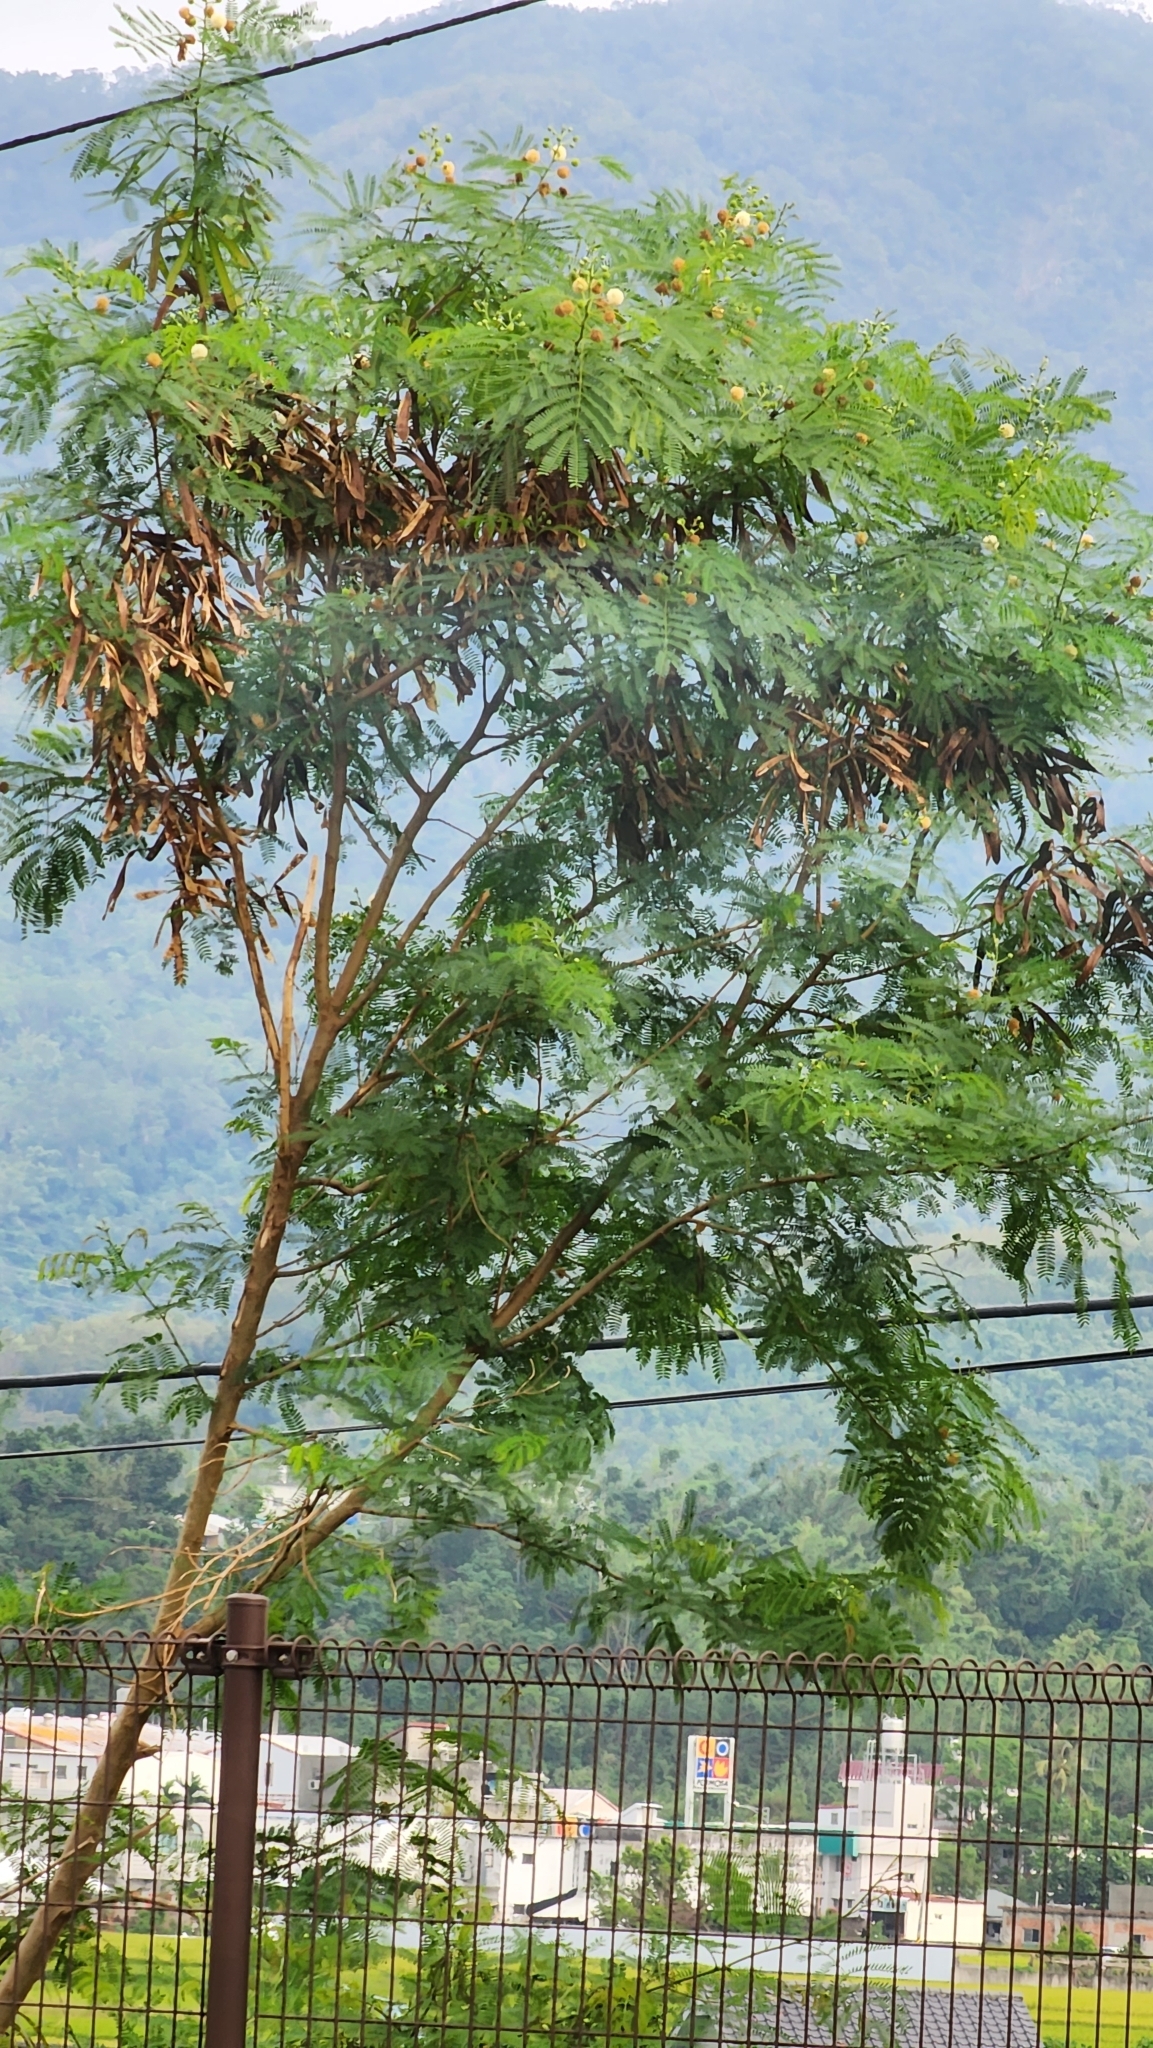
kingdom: Plantae
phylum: Tracheophyta
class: Magnoliopsida
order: Fabales
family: Fabaceae
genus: Leucaena
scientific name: Leucaena leucocephala
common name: White leadtree
